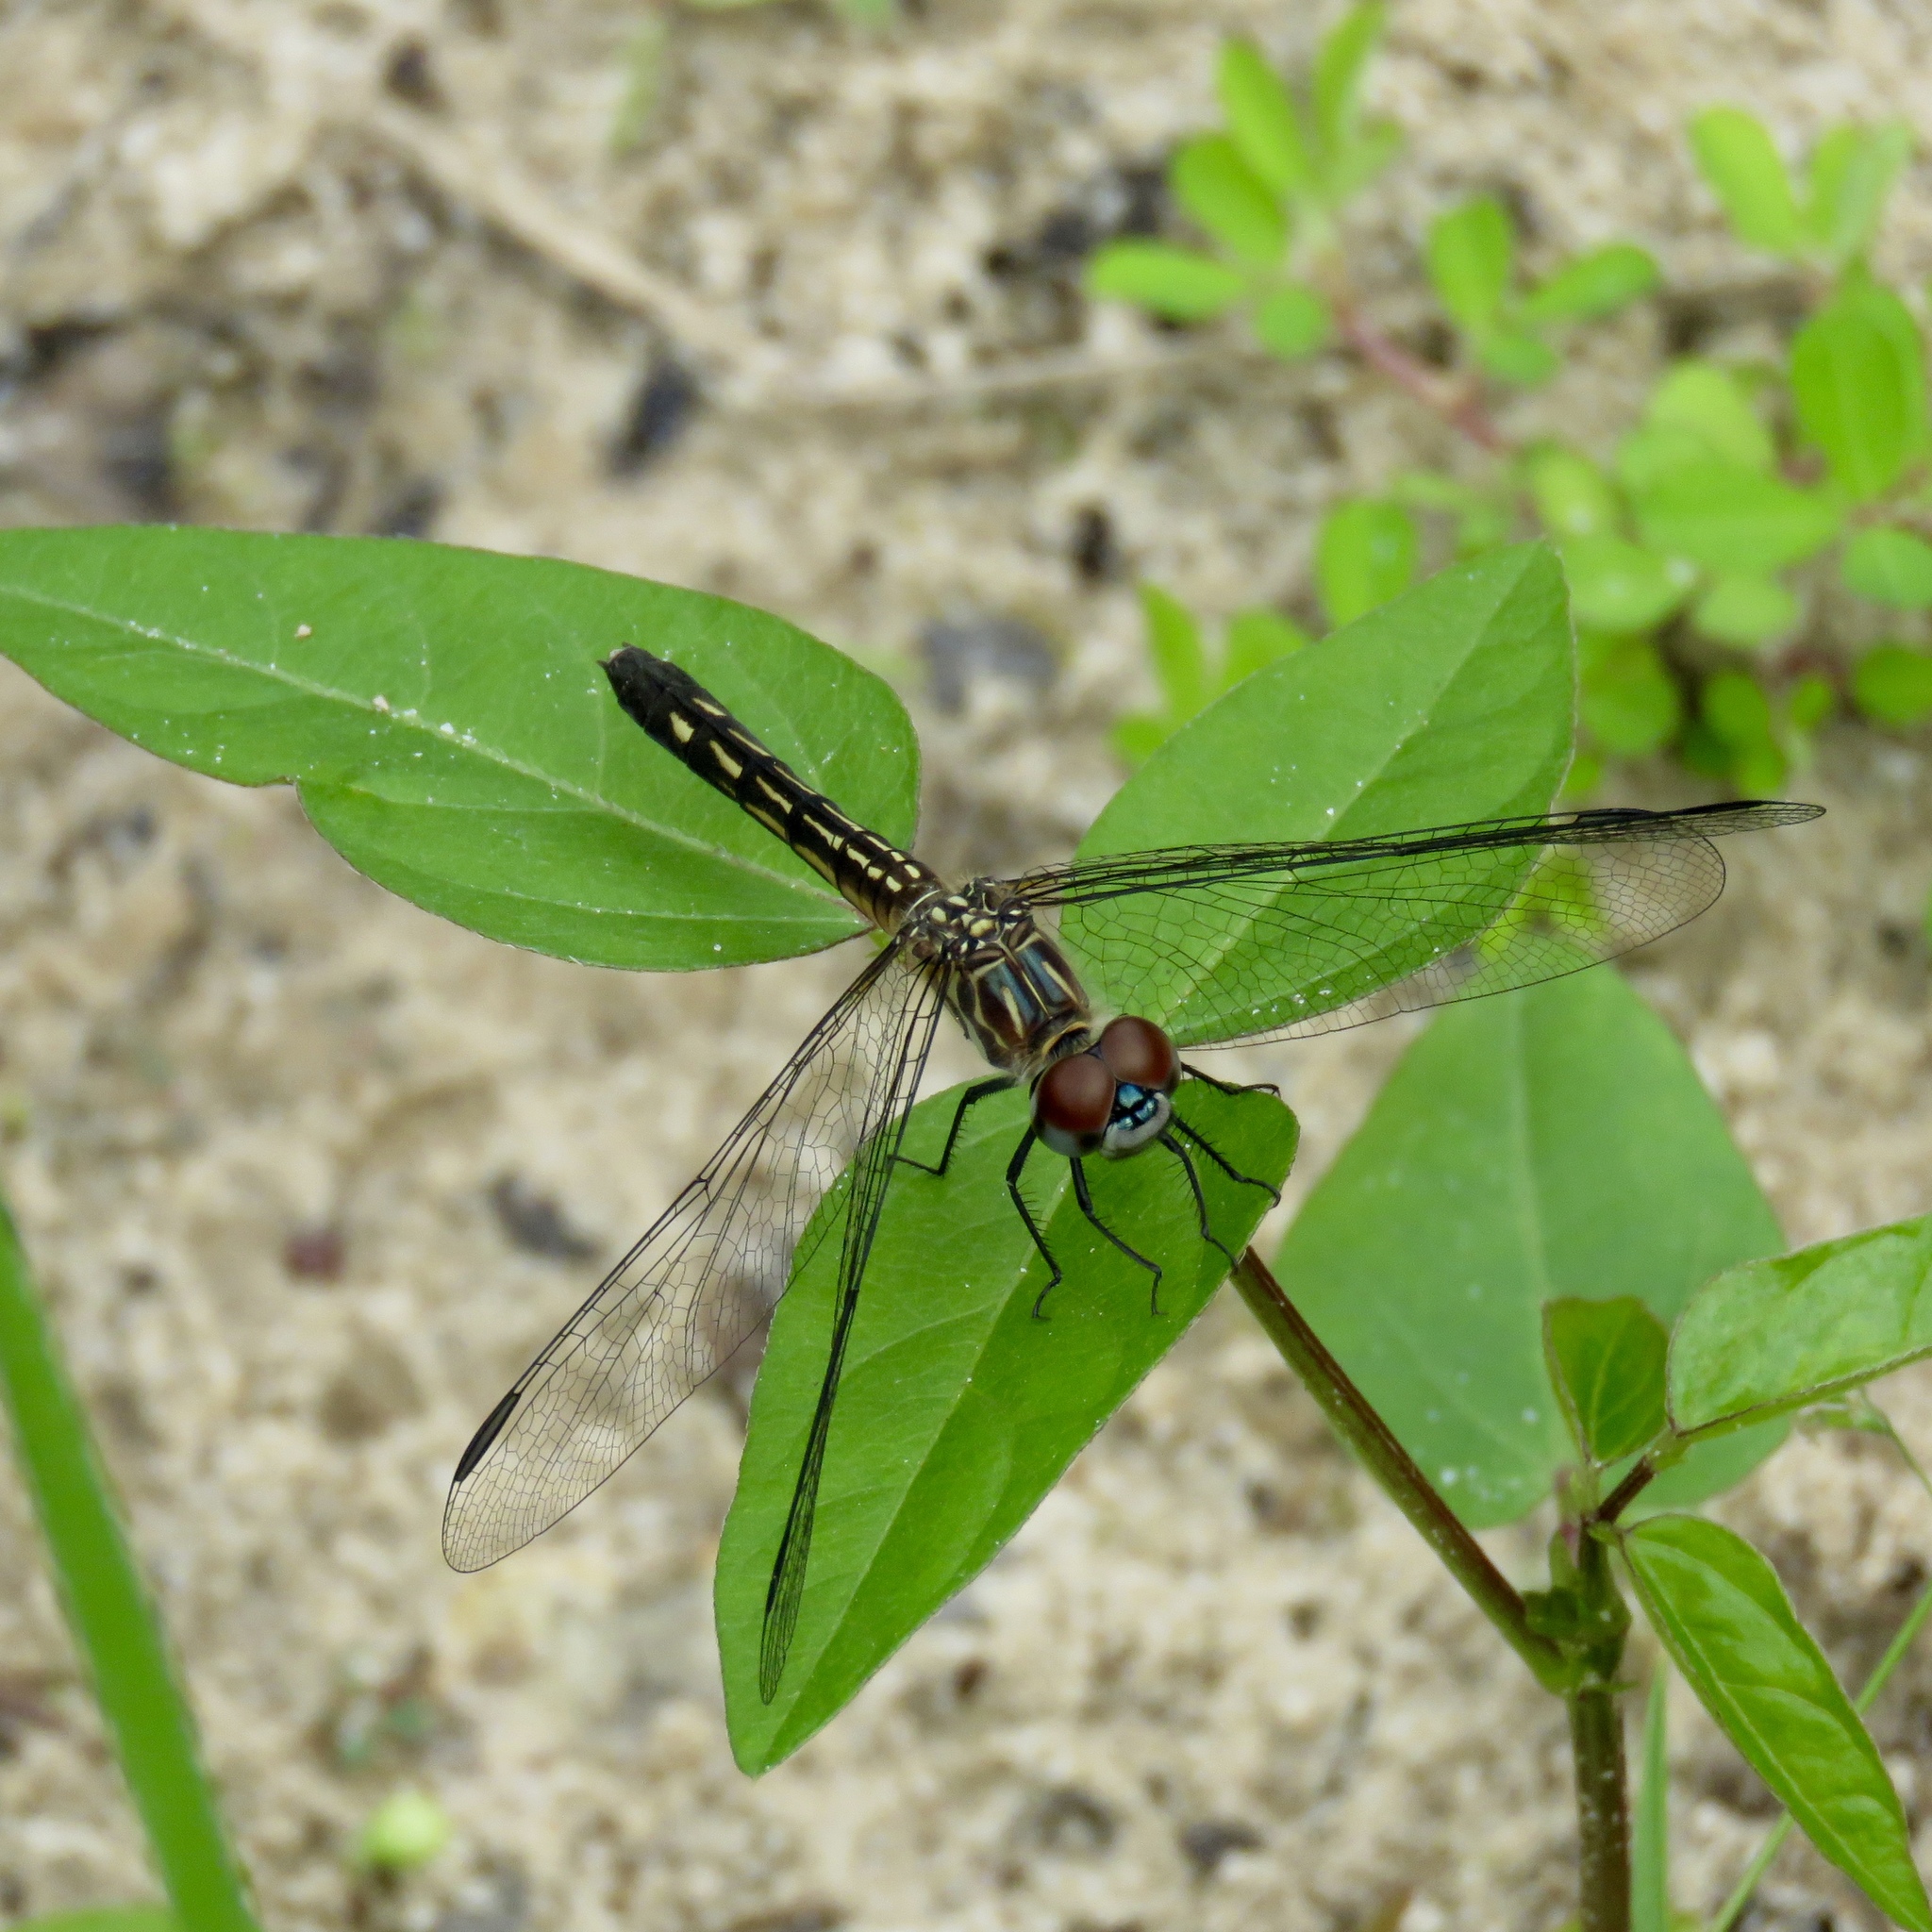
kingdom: Animalia
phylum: Arthropoda
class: Insecta
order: Odonata
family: Libellulidae
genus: Pachydiplax
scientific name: Pachydiplax longipennis
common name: Blue dasher
